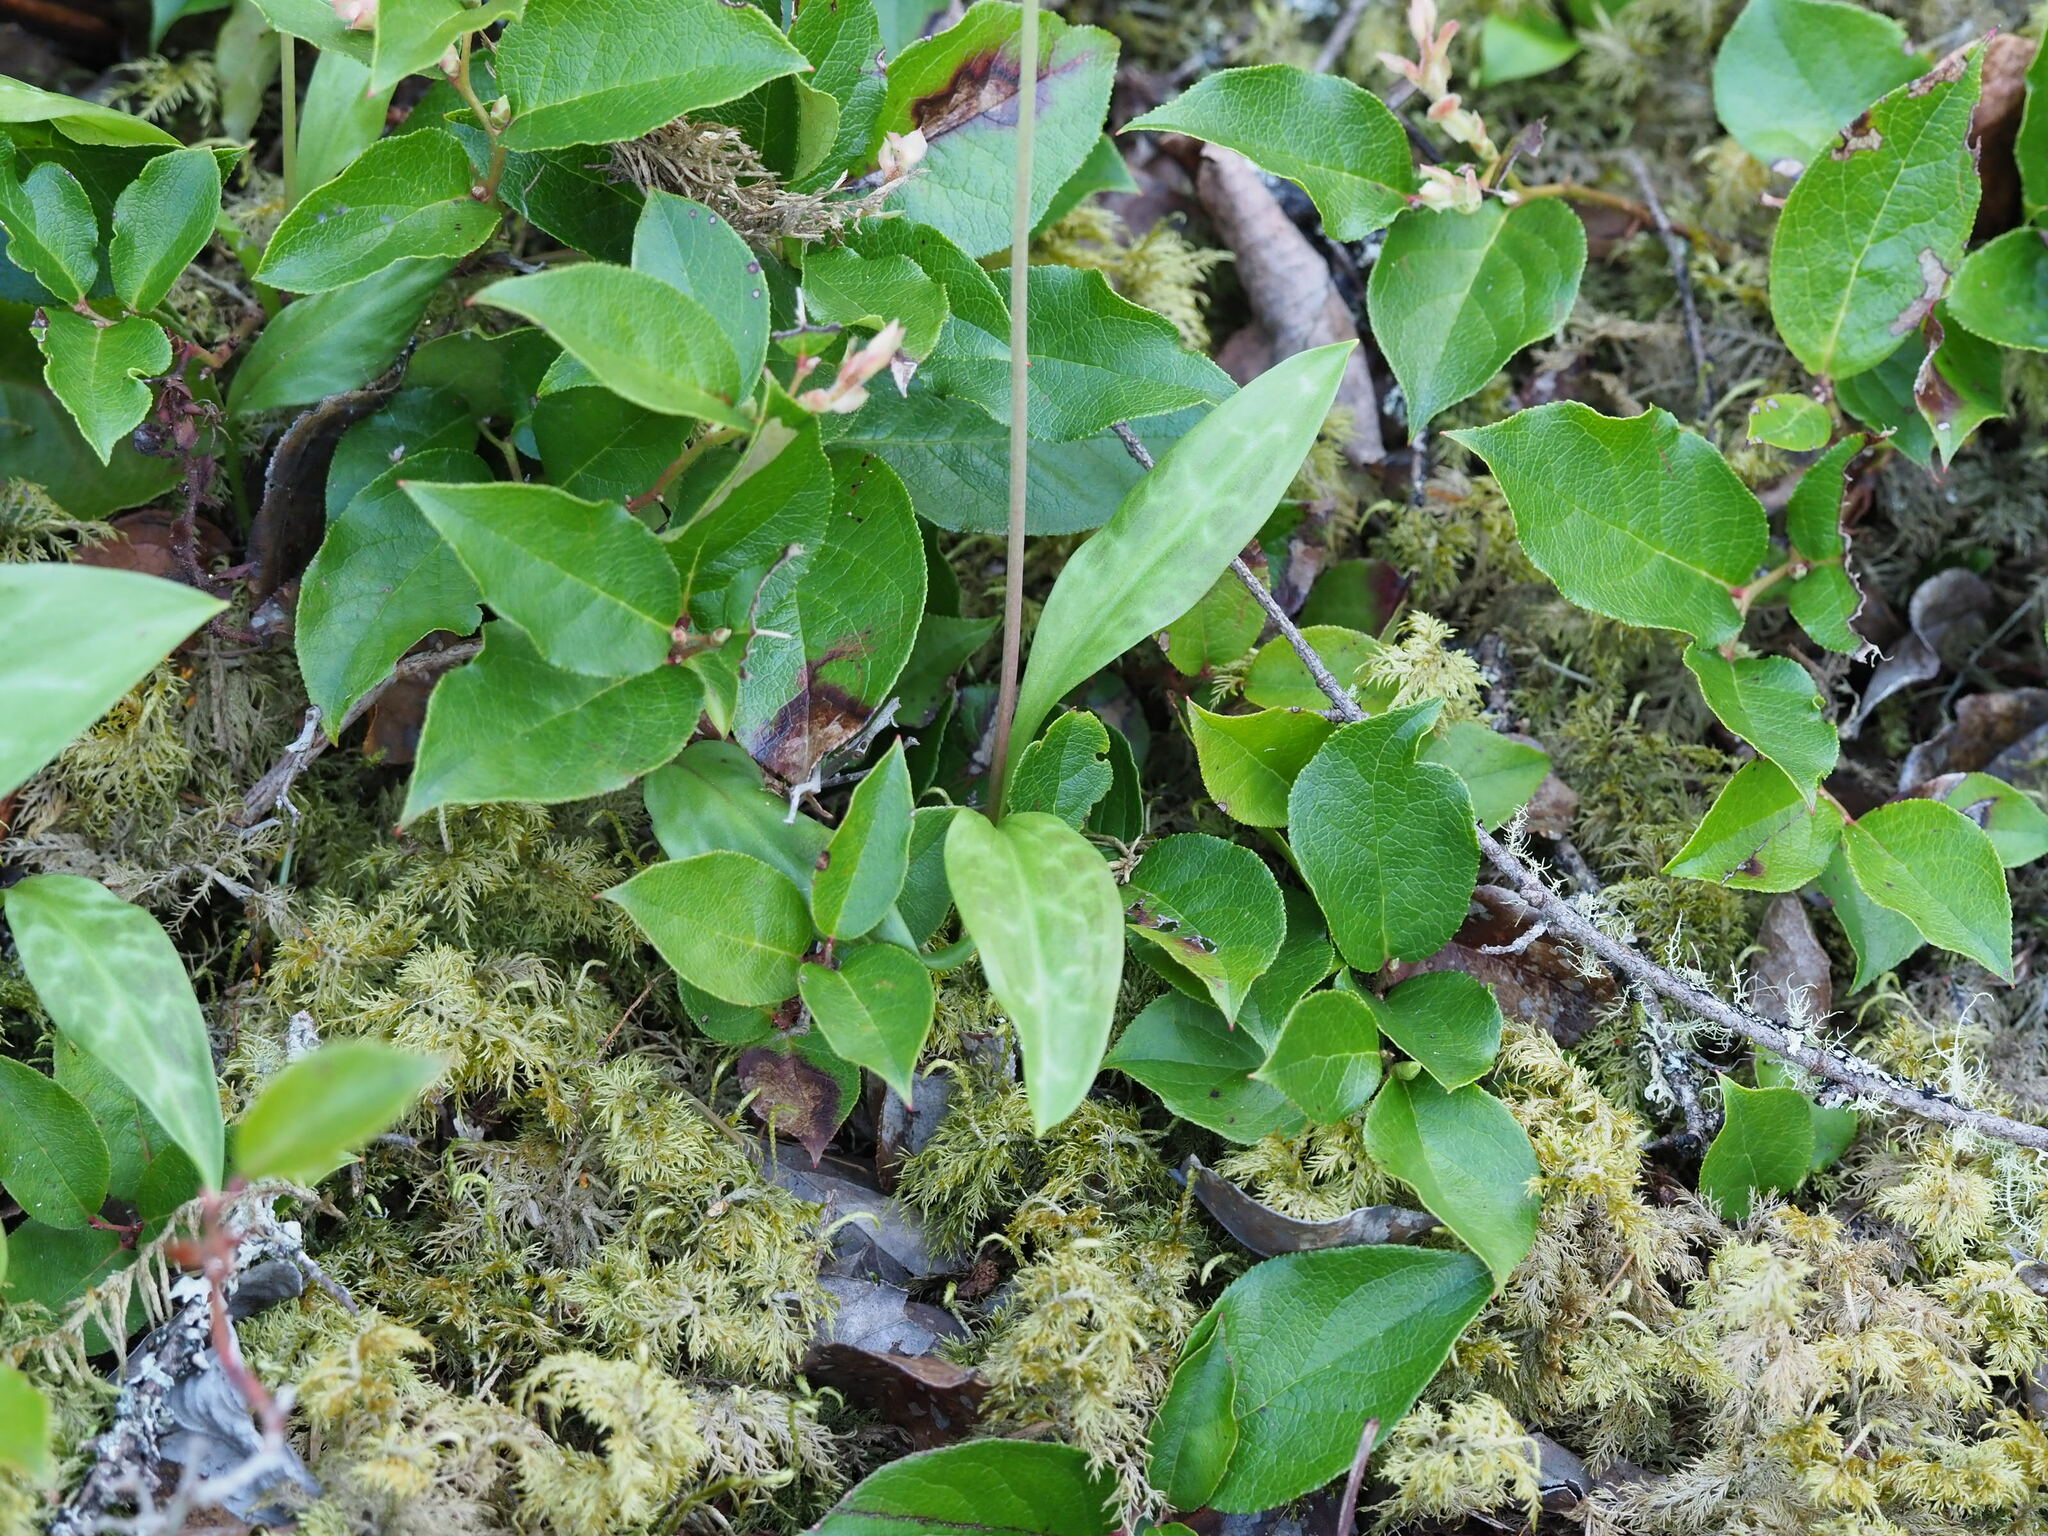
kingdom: Plantae
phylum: Tracheophyta
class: Liliopsida
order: Liliales
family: Liliaceae
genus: Erythronium
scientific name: Erythronium oregonum
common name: Giant adder's-tongue
